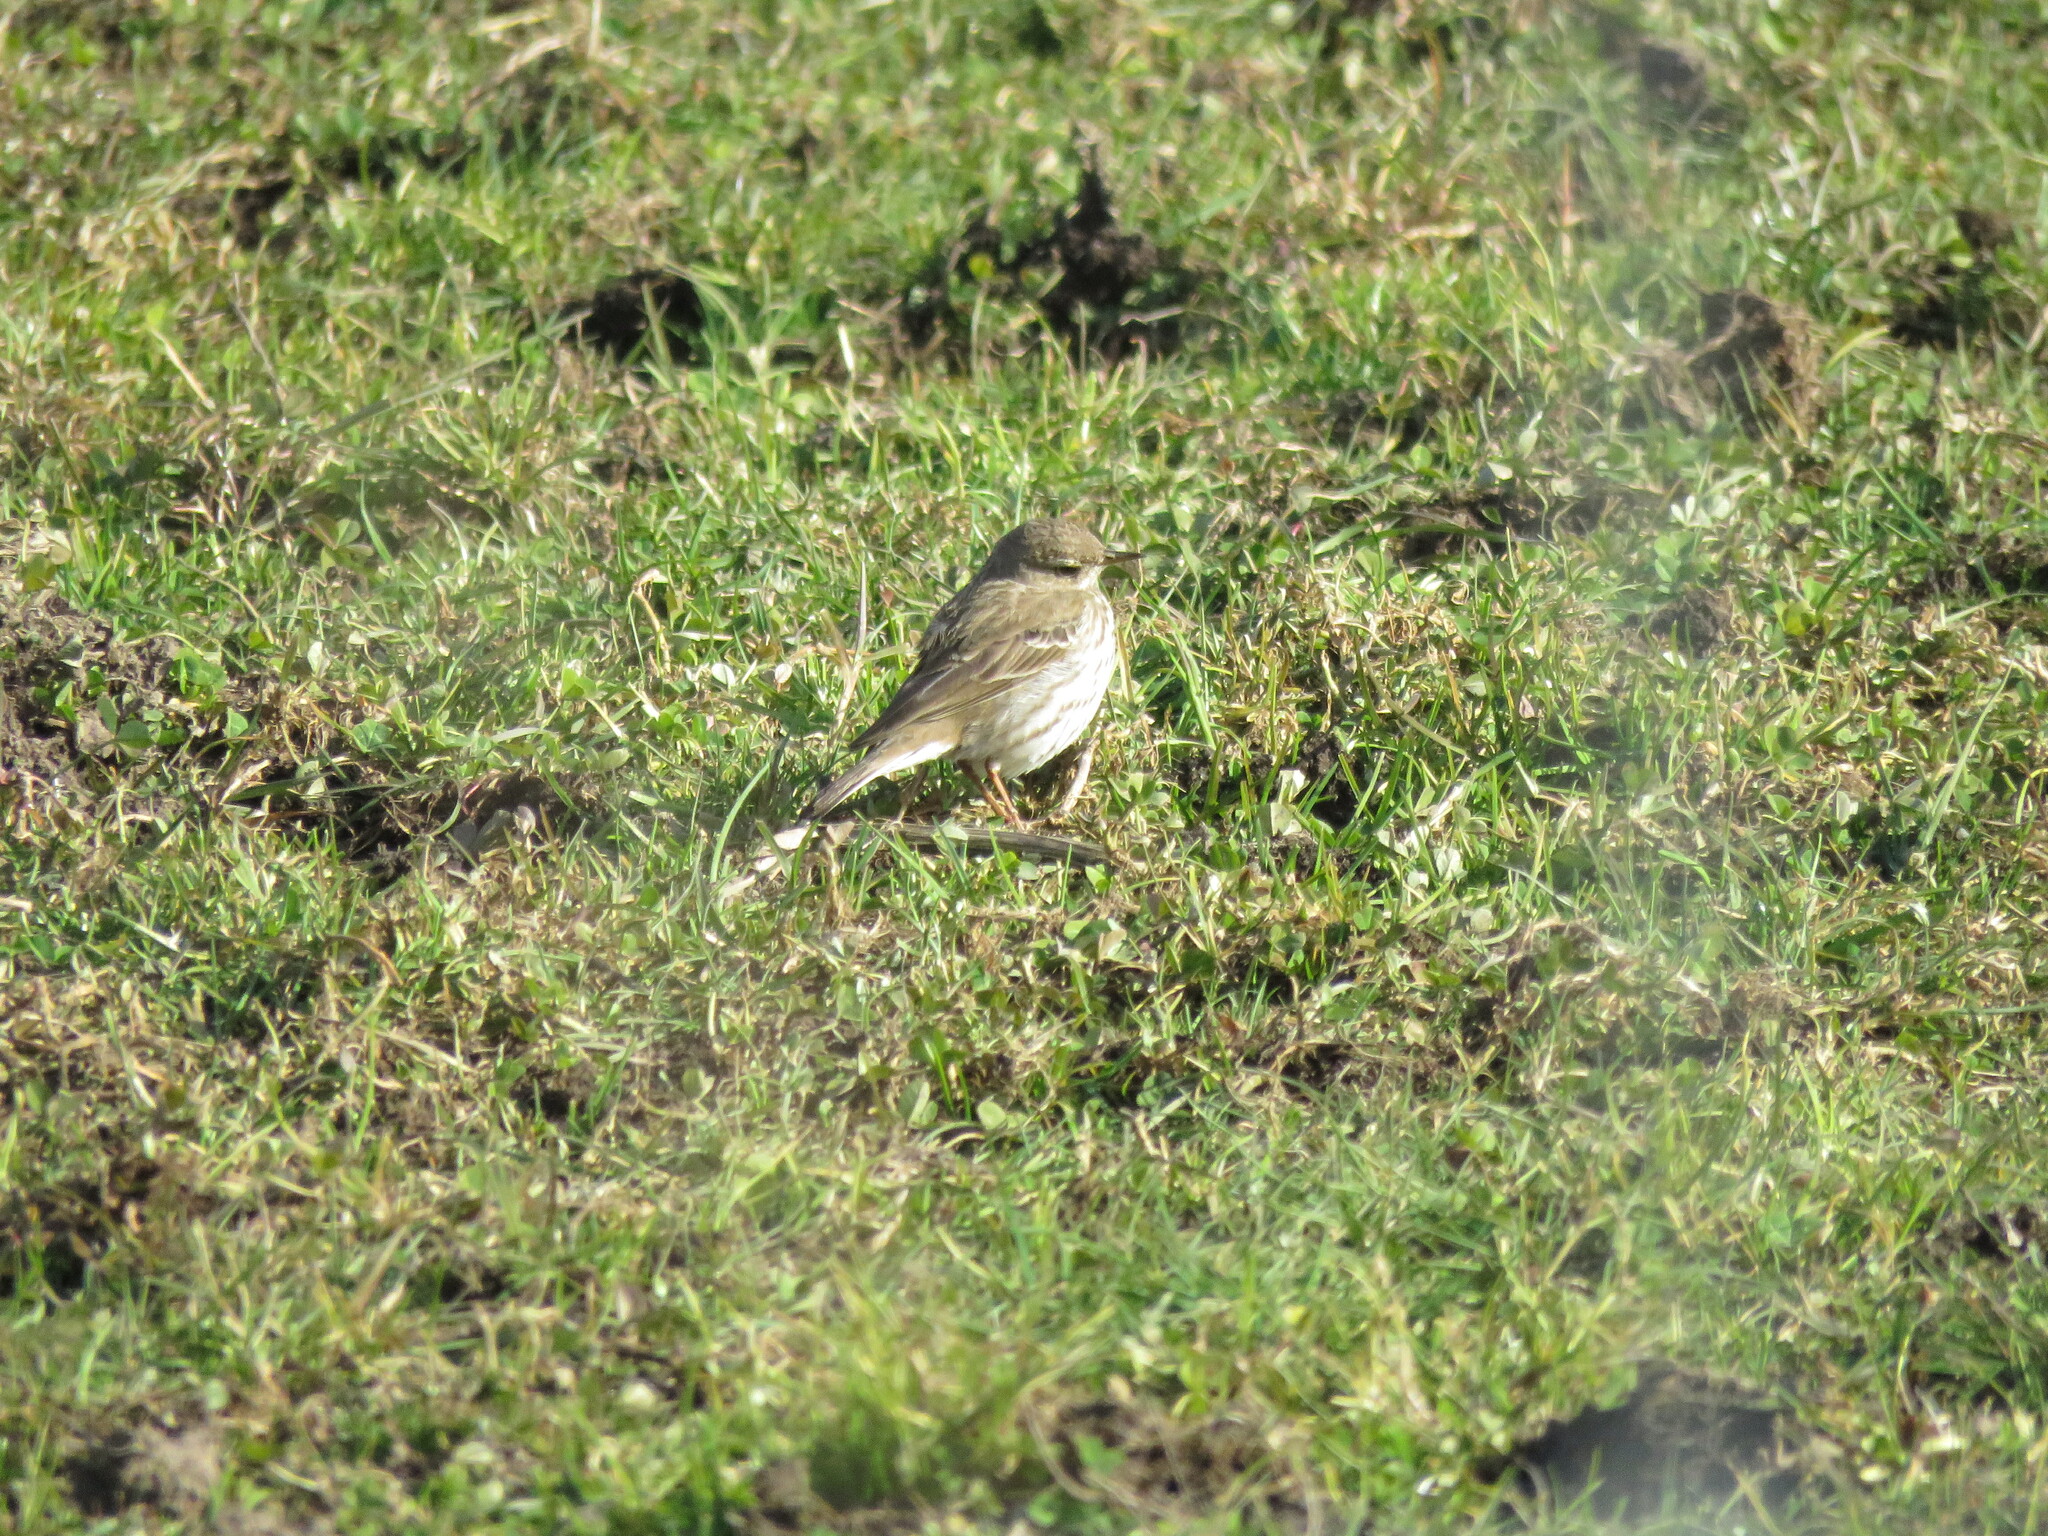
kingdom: Animalia
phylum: Chordata
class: Aves
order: Passeriformes
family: Motacillidae
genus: Anthus
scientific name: Anthus spinoletta
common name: Water pipit
